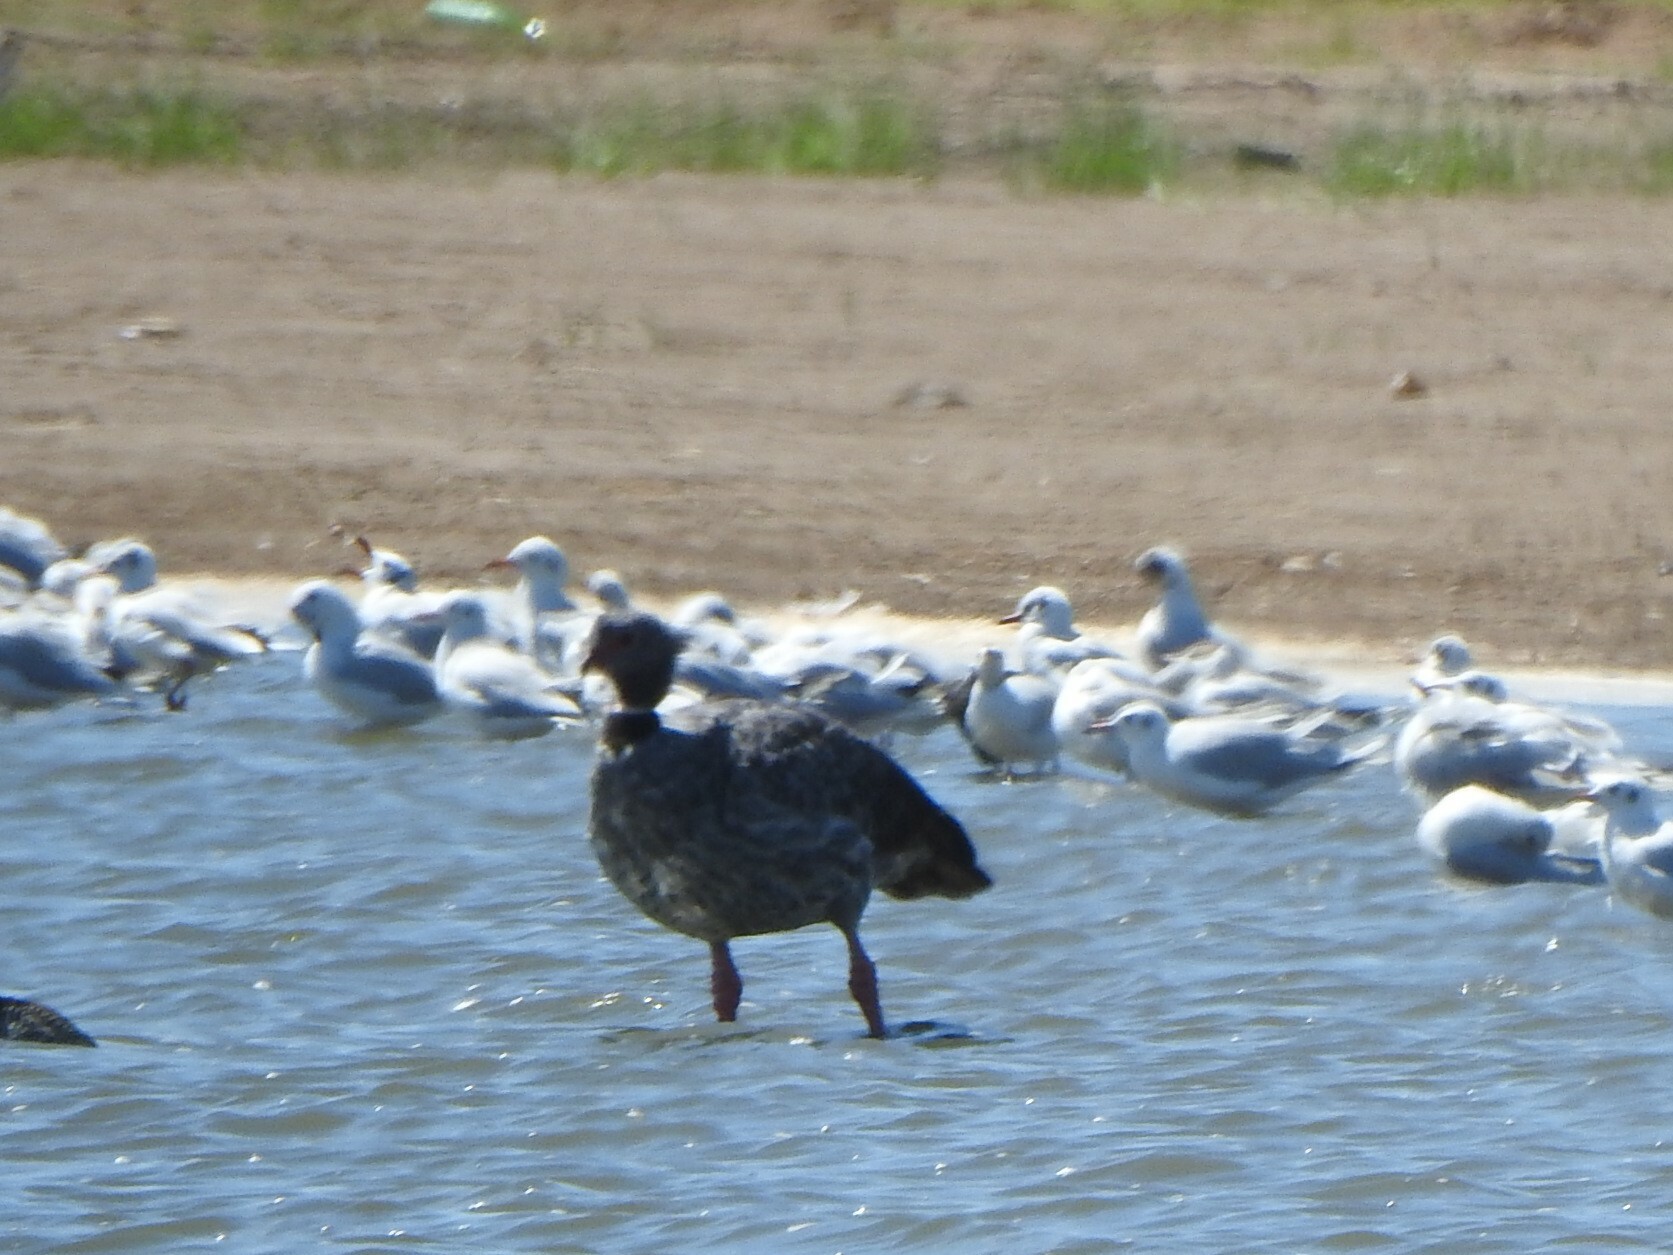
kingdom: Animalia
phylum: Chordata
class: Aves
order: Anseriformes
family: Anhimidae
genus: Chauna
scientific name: Chauna torquata
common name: Southern screamer
